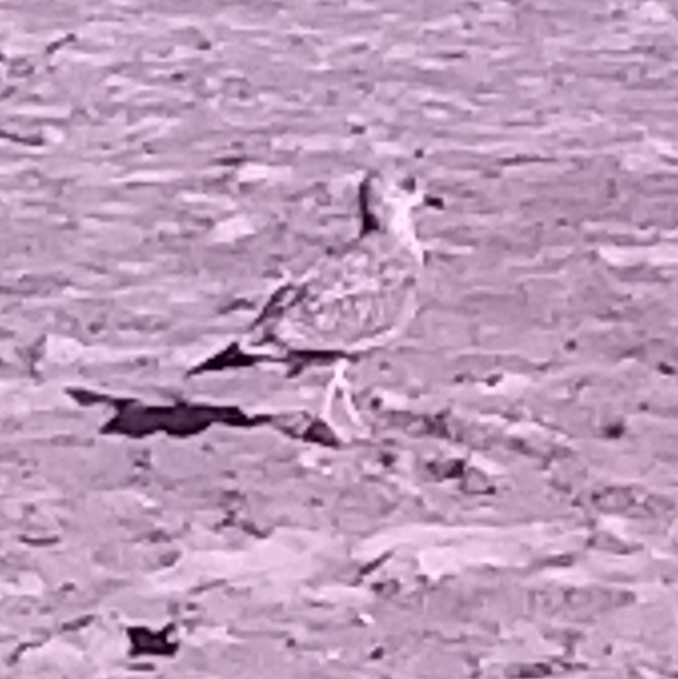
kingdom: Animalia
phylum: Chordata
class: Aves
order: Charadriiformes
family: Laridae
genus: Larus
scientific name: Larus argentatus
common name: Herring gull
